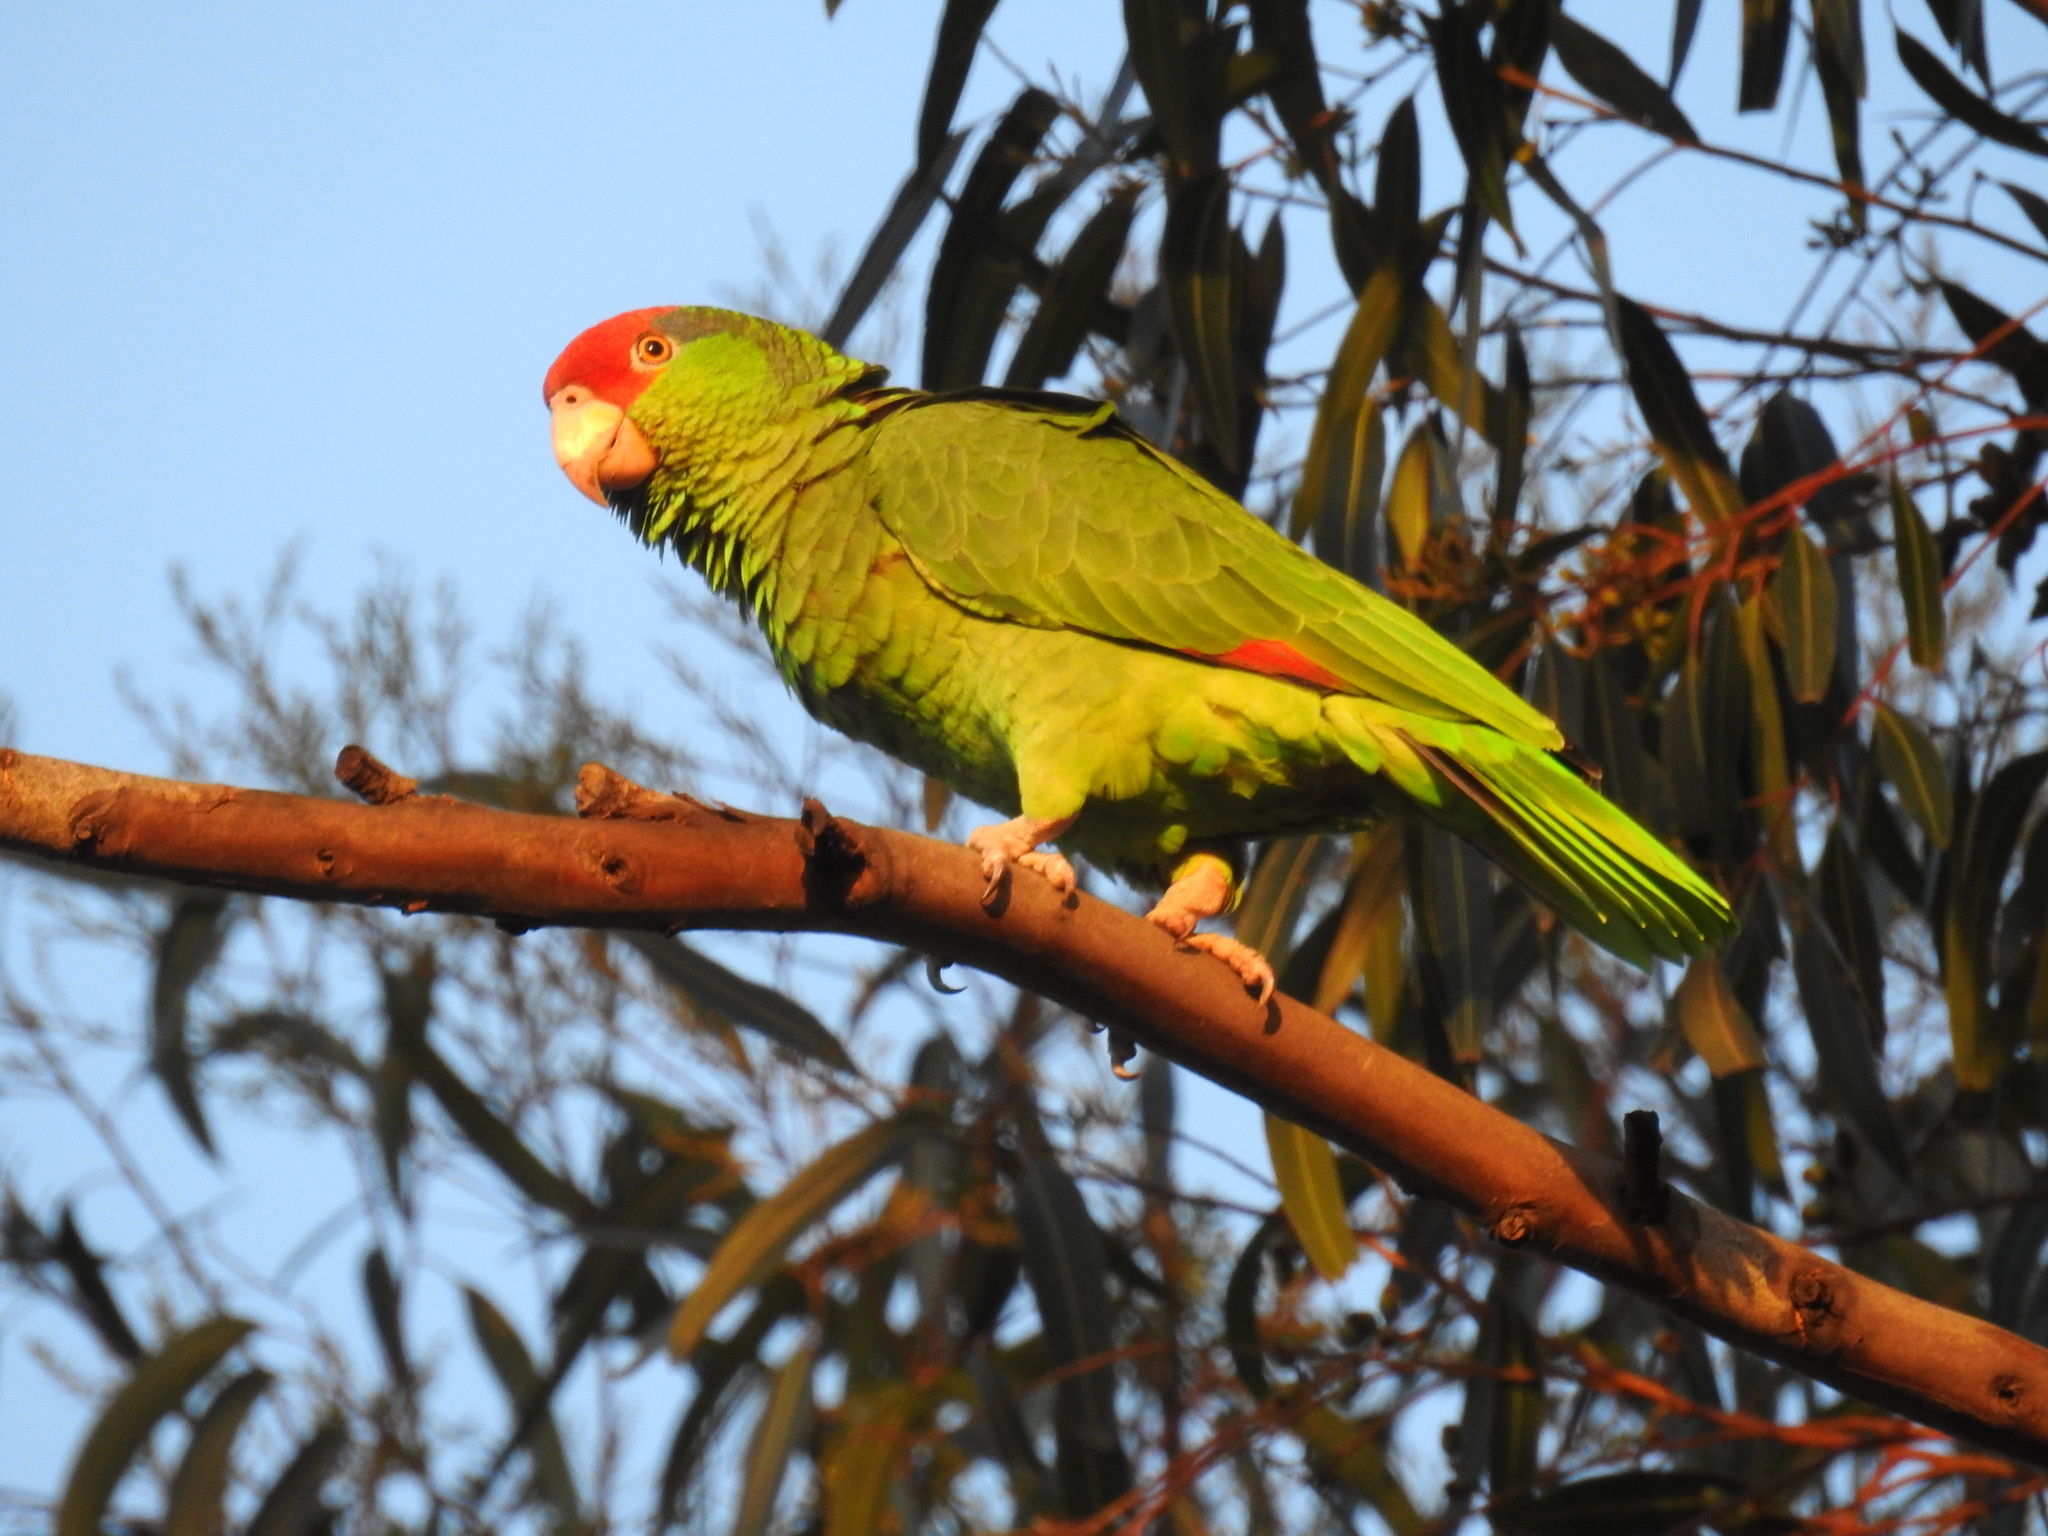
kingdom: Animalia
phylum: Chordata
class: Aves
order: Psittaciformes
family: Psittacidae
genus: Amazona
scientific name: Amazona viridigenalis
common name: Red-crowned amazon
